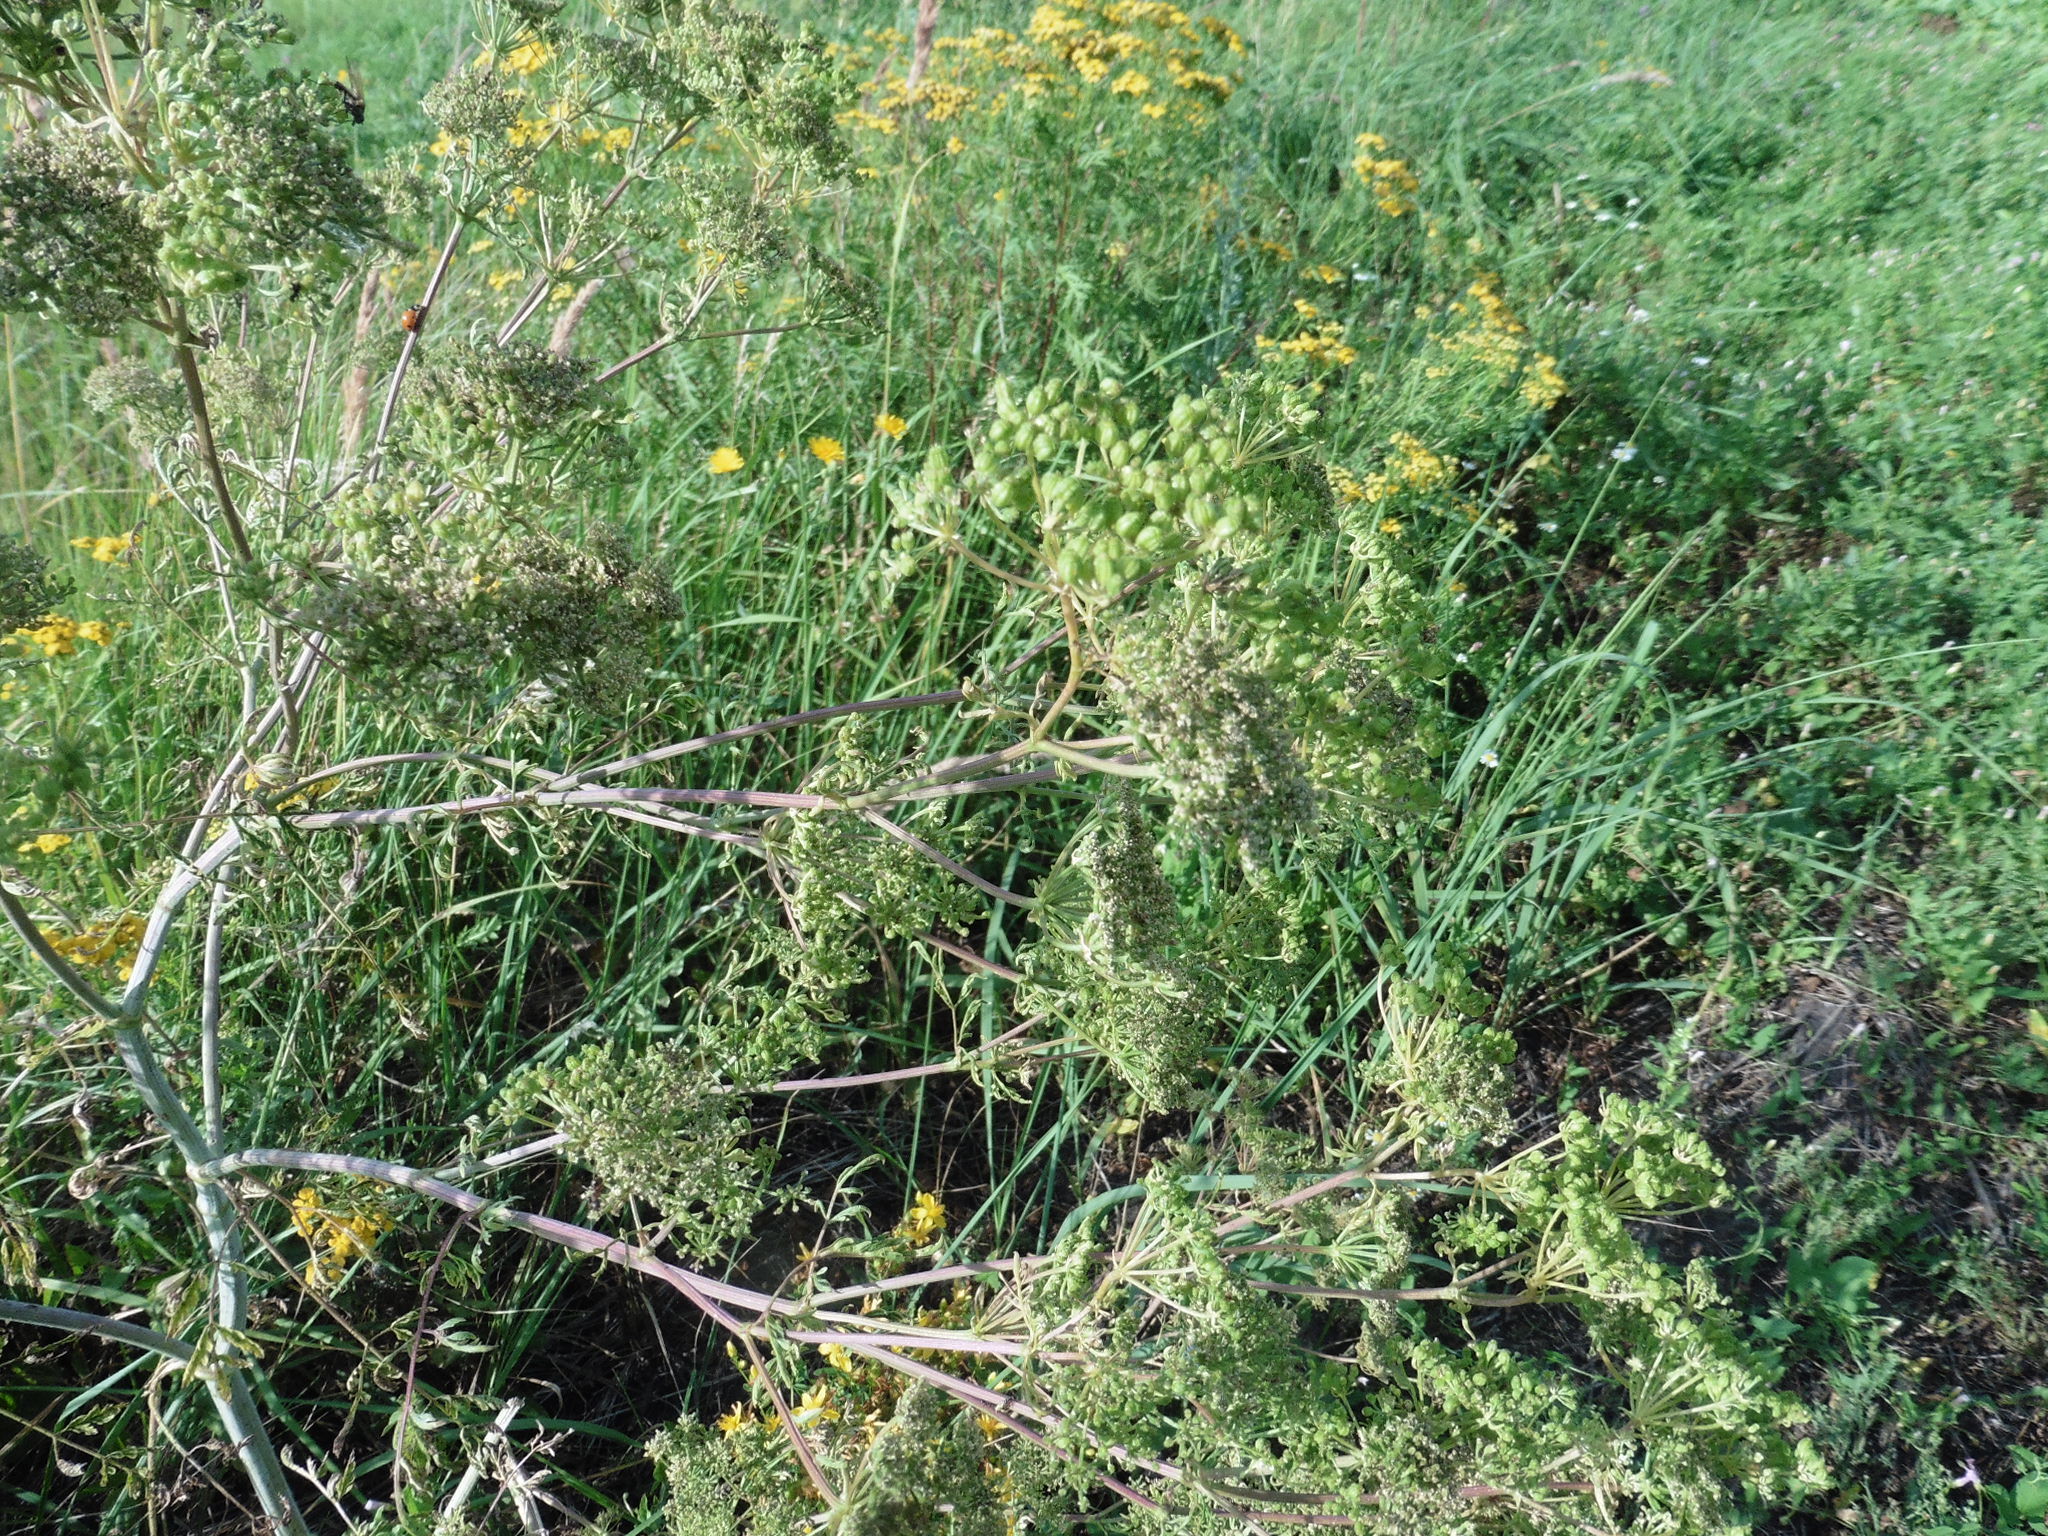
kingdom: Plantae
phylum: Tracheophyta
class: Magnoliopsida
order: Apiales
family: Apiaceae
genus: Conium
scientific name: Conium maculatum
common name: Hemlock
